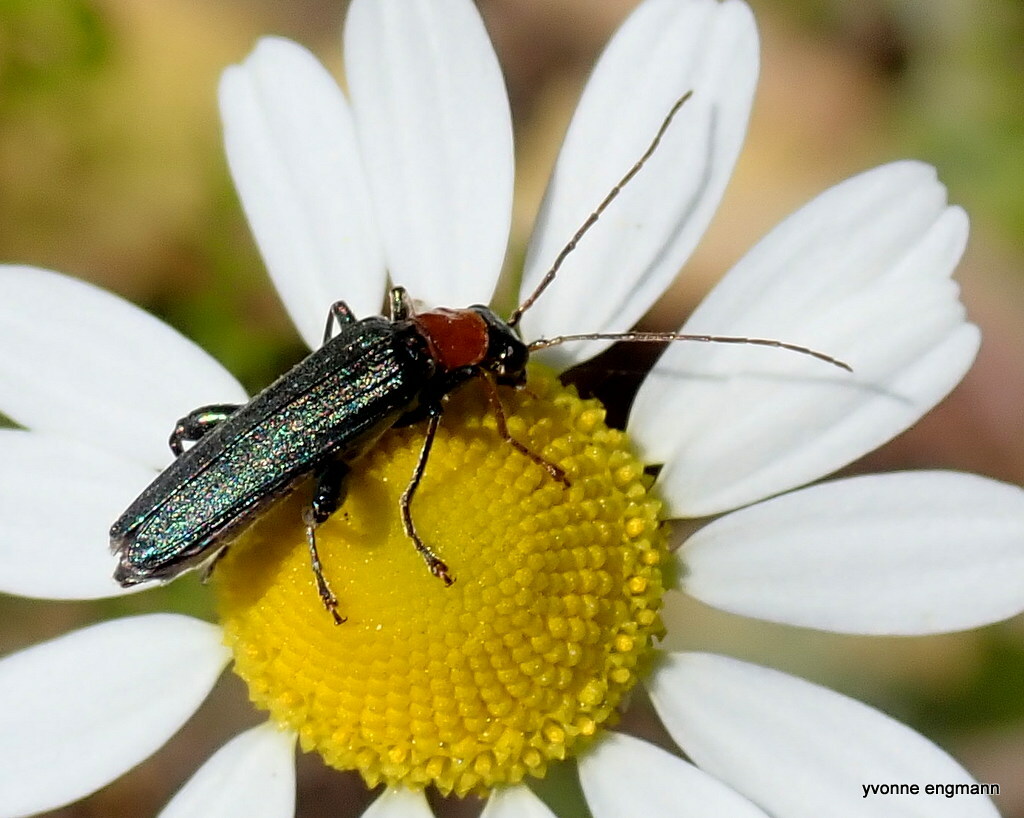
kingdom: Animalia
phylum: Arthropoda
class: Insecta
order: Coleoptera
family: Oedemeridae
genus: Oedemera
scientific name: Oedemera croceicollis
